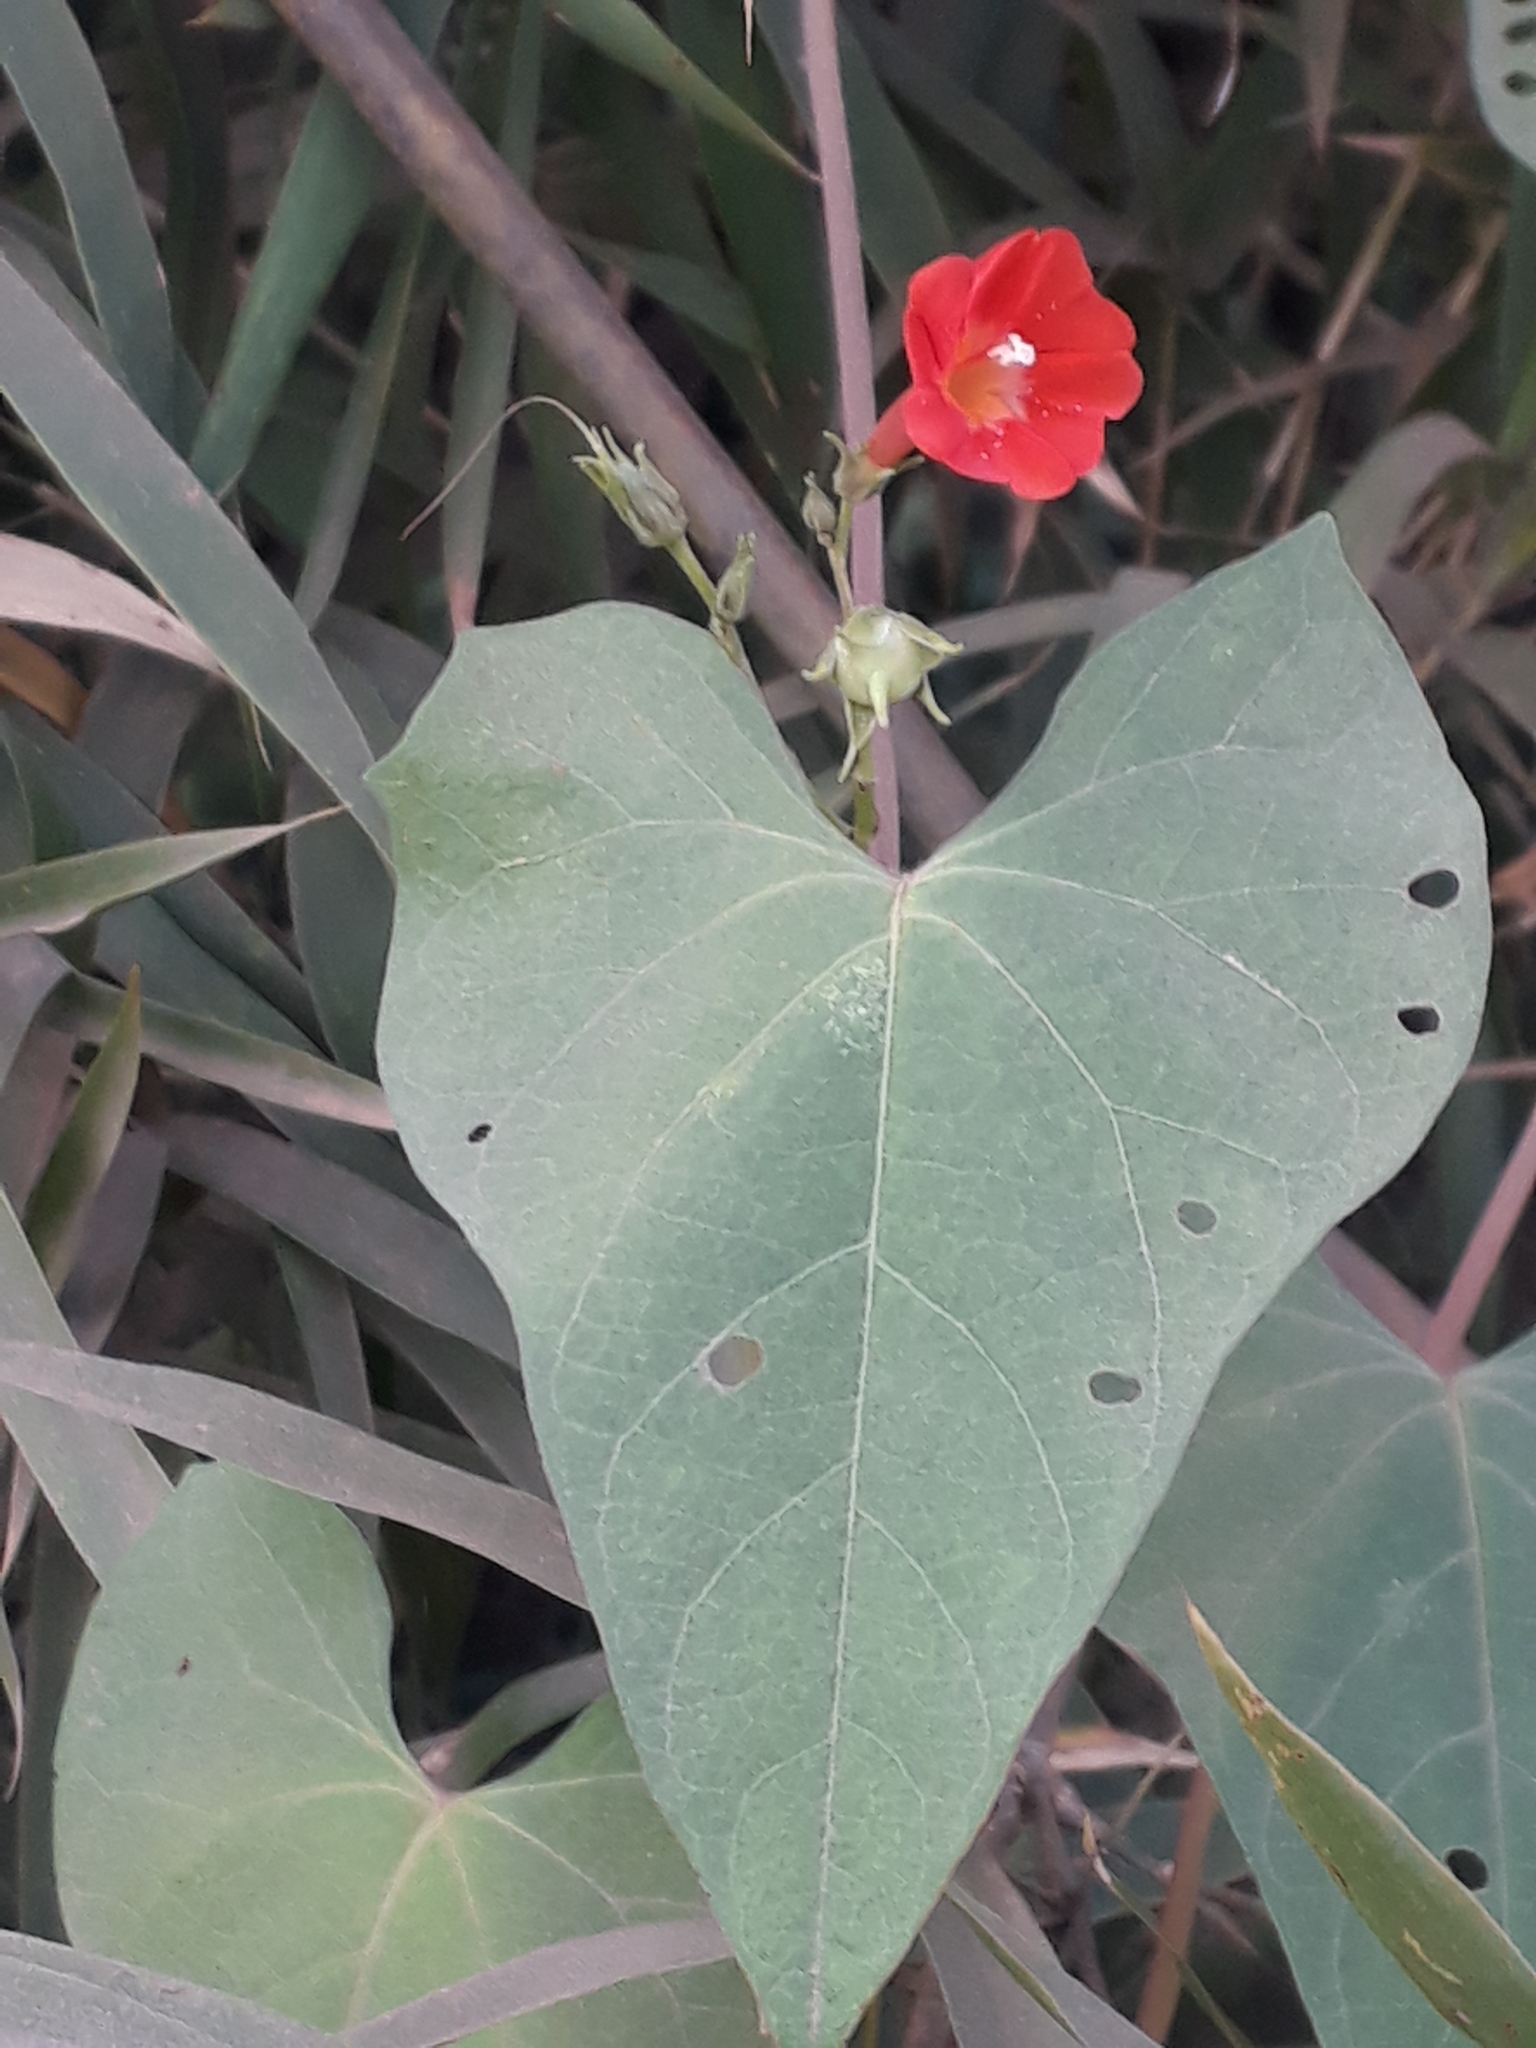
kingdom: Plantae
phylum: Tracheophyta
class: Magnoliopsida
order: Solanales
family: Convolvulaceae
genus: Ipomoea
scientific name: Ipomoea indivisa
